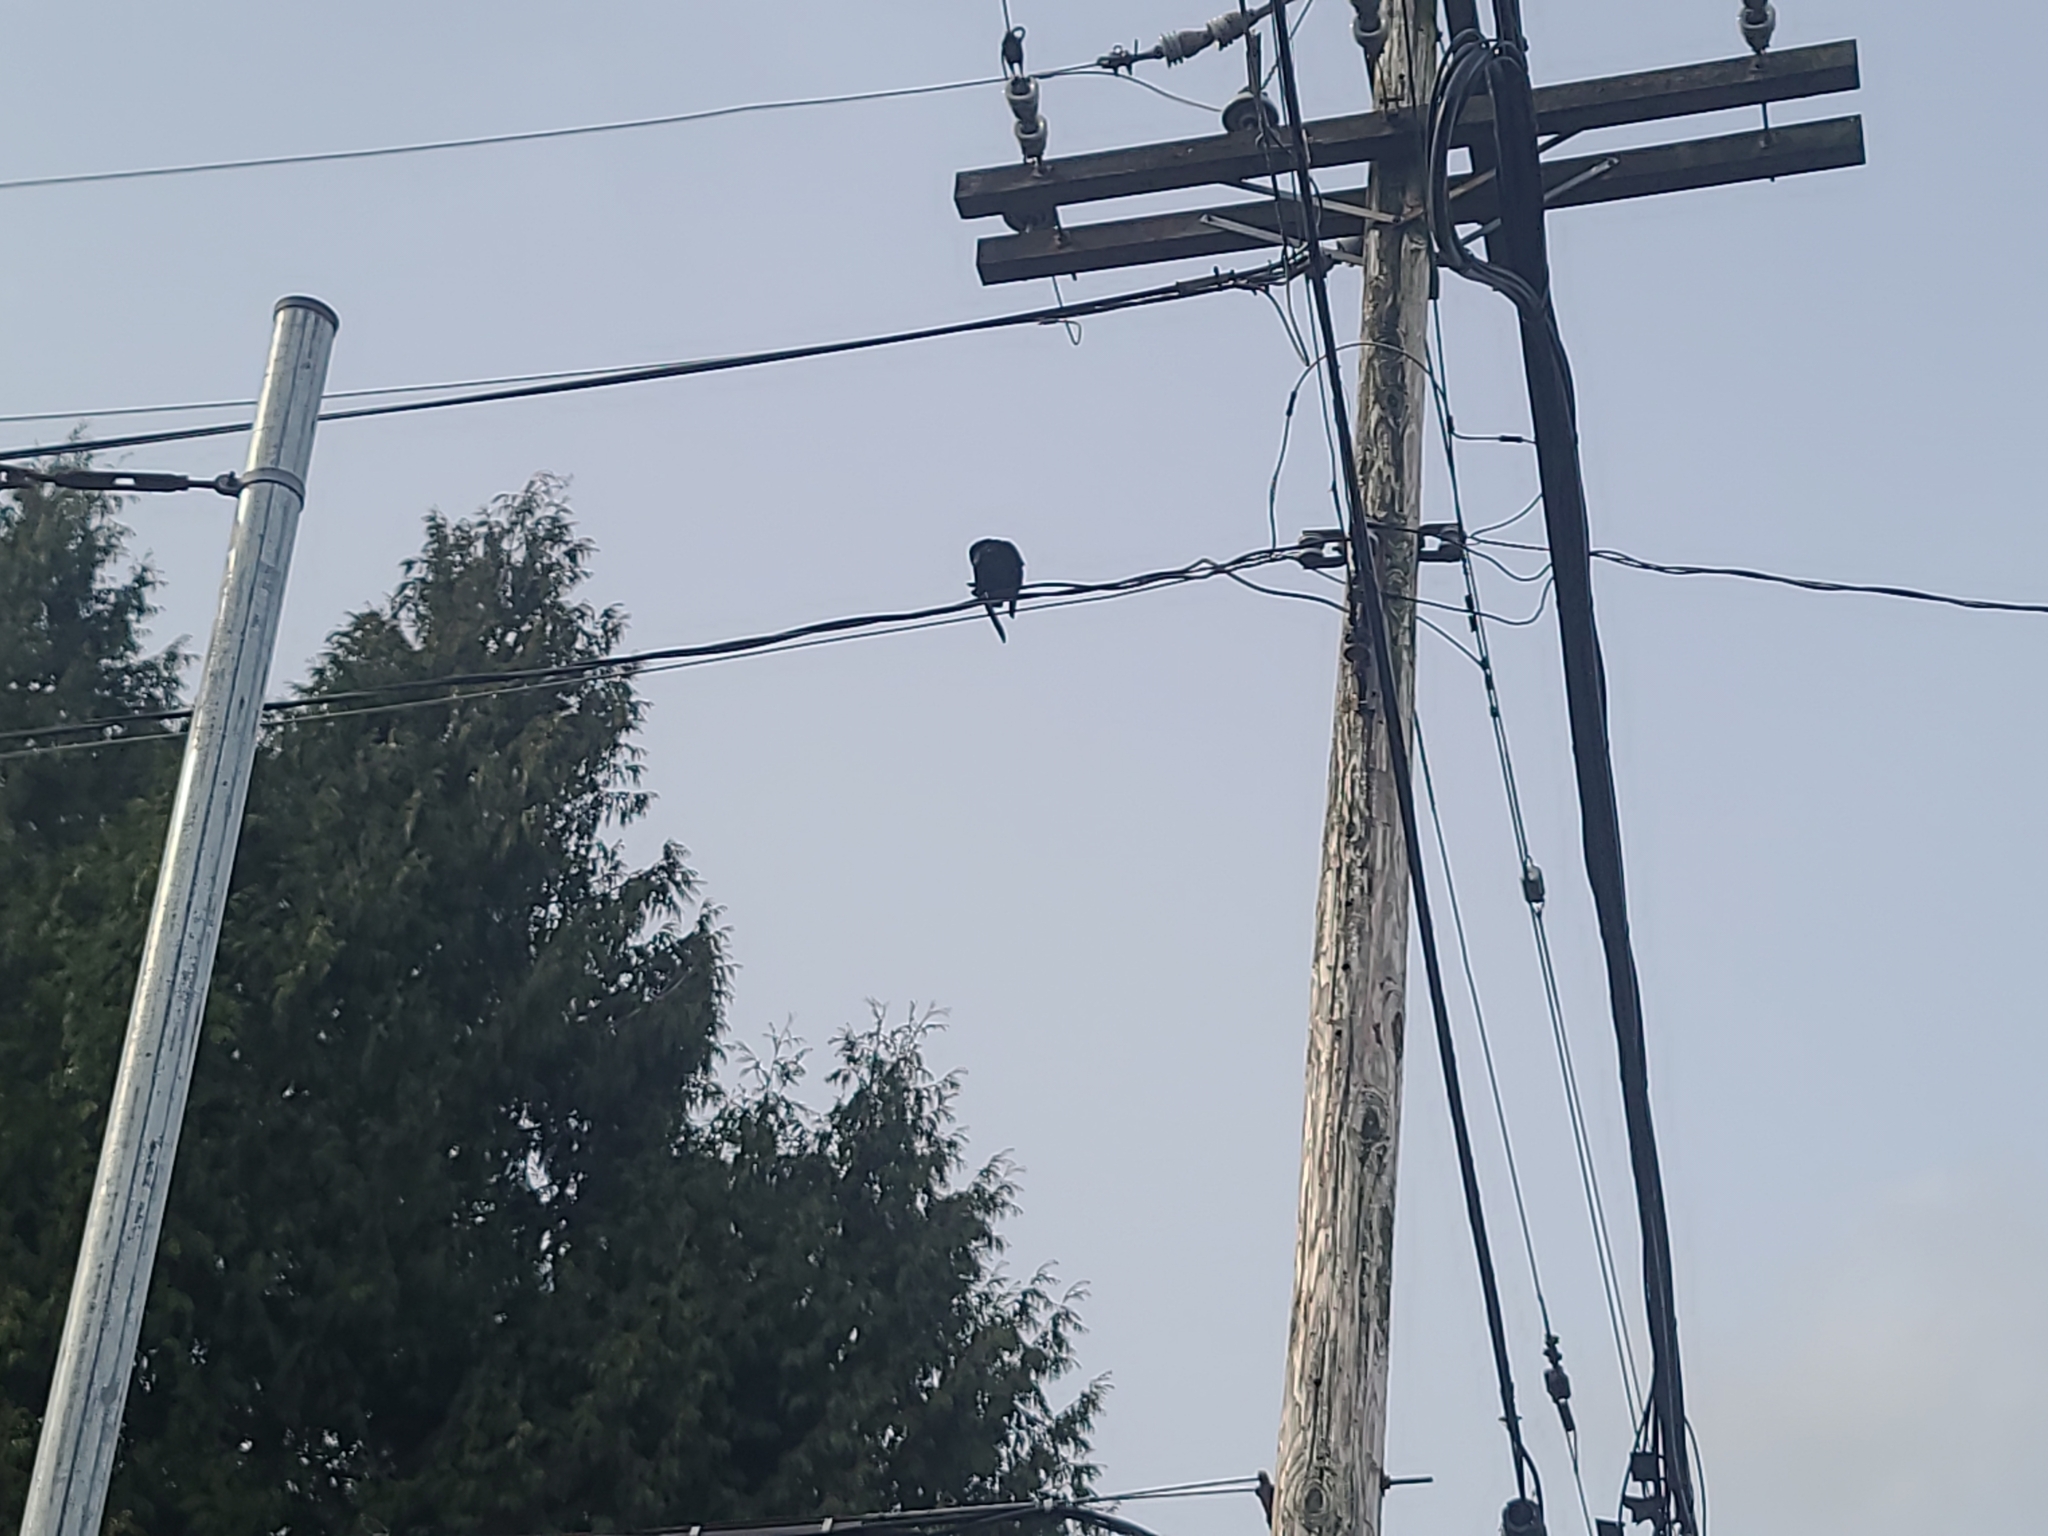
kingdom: Animalia
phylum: Chordata
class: Aves
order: Passeriformes
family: Corvidae
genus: Corvus
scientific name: Corvus brachyrhynchos
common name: American crow
